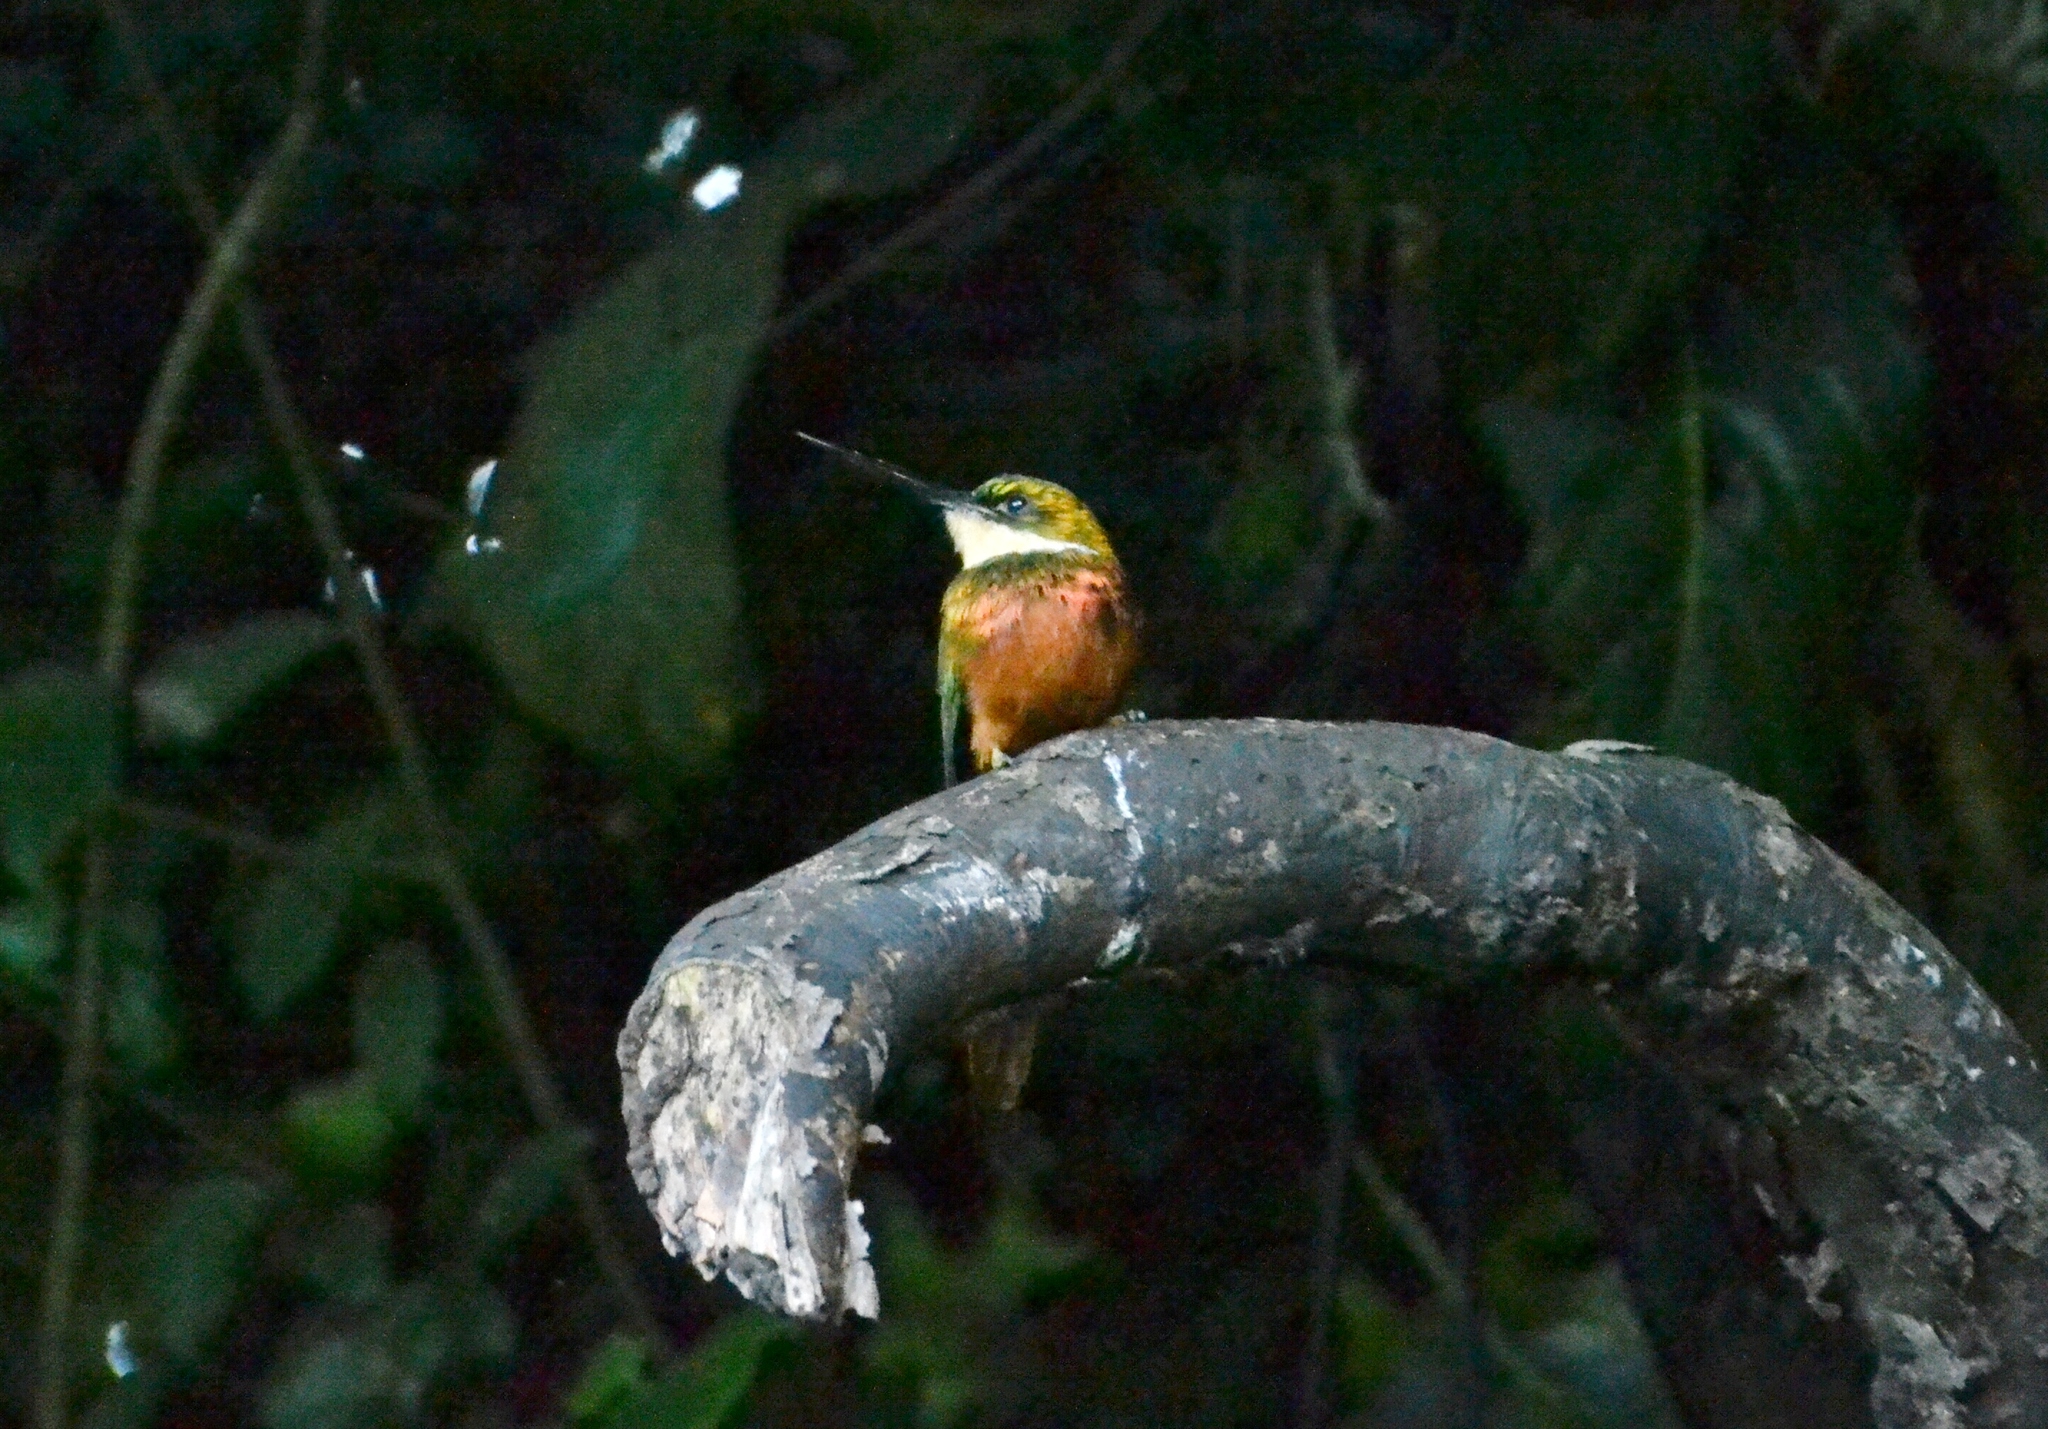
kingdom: Animalia
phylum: Chordata
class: Aves
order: Piciformes
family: Galbulidae
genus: Galbula
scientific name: Galbula ruficauda
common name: Rufous-tailed jacamar
